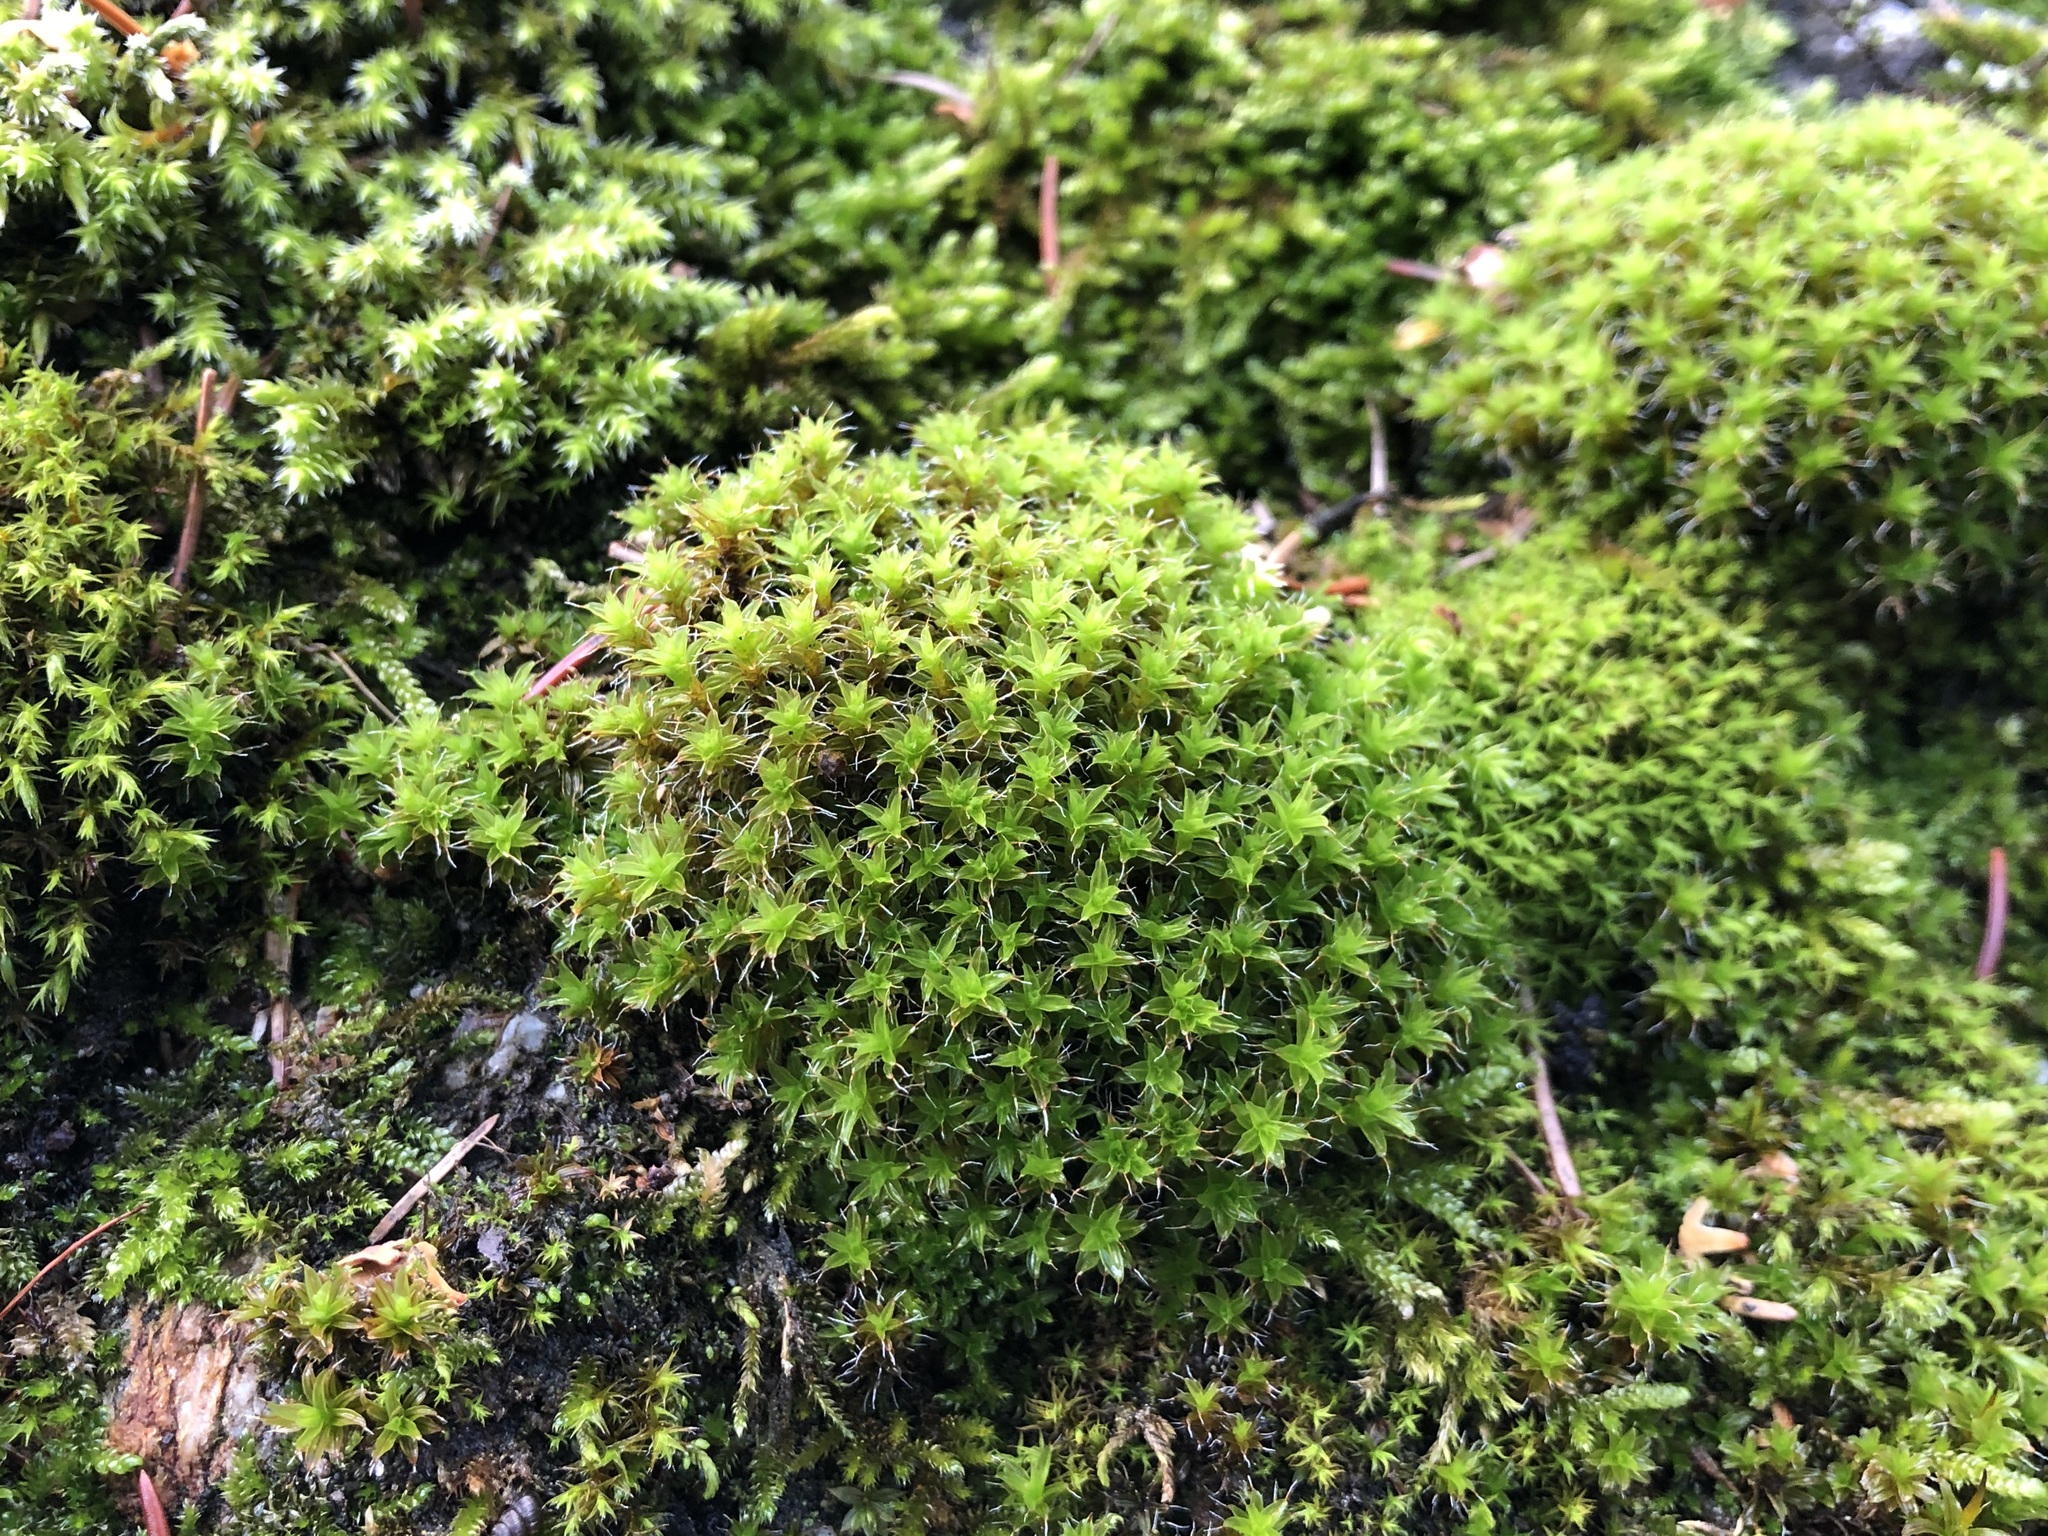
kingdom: Plantae
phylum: Bryophyta
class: Bryopsida
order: Pottiales
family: Pottiaceae
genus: Syntrichia
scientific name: Syntrichia ruralis
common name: Sidewalk screw moss
